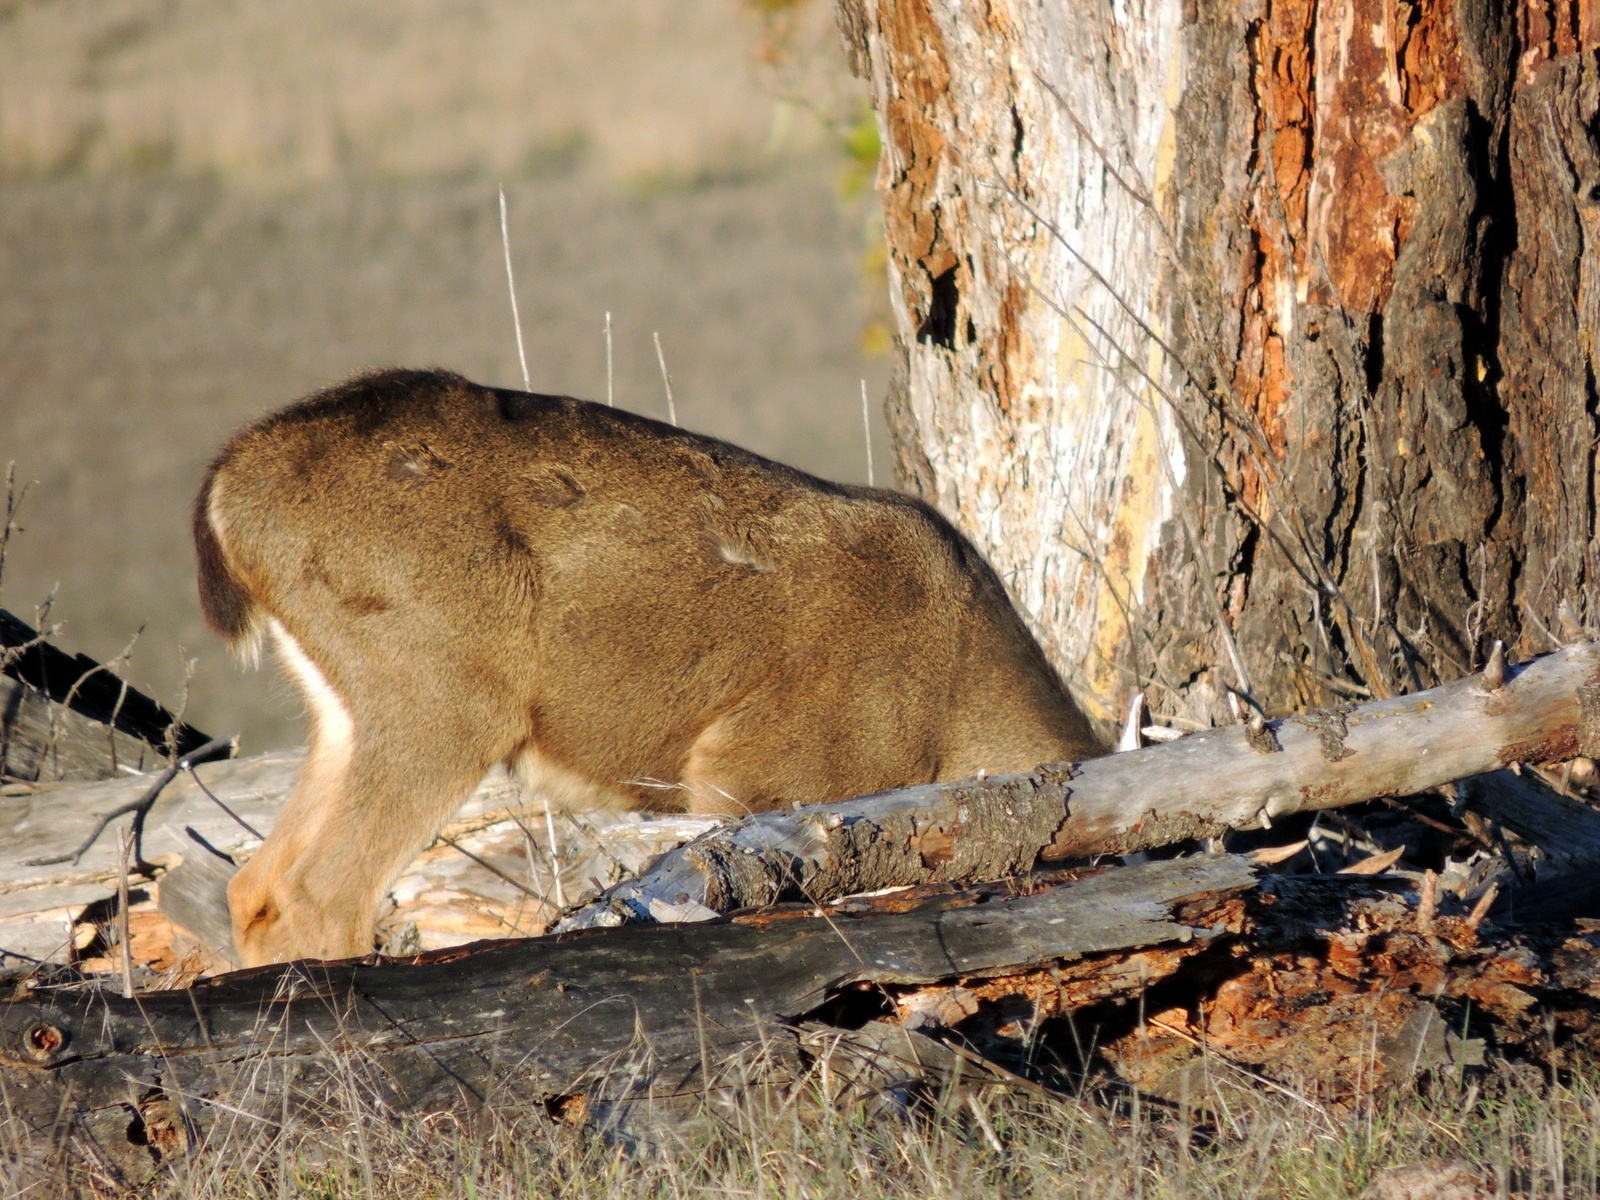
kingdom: Animalia
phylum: Chordata
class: Mammalia
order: Artiodactyla
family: Cervidae
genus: Odocoileus
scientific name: Odocoileus hemionus
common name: Mule deer
